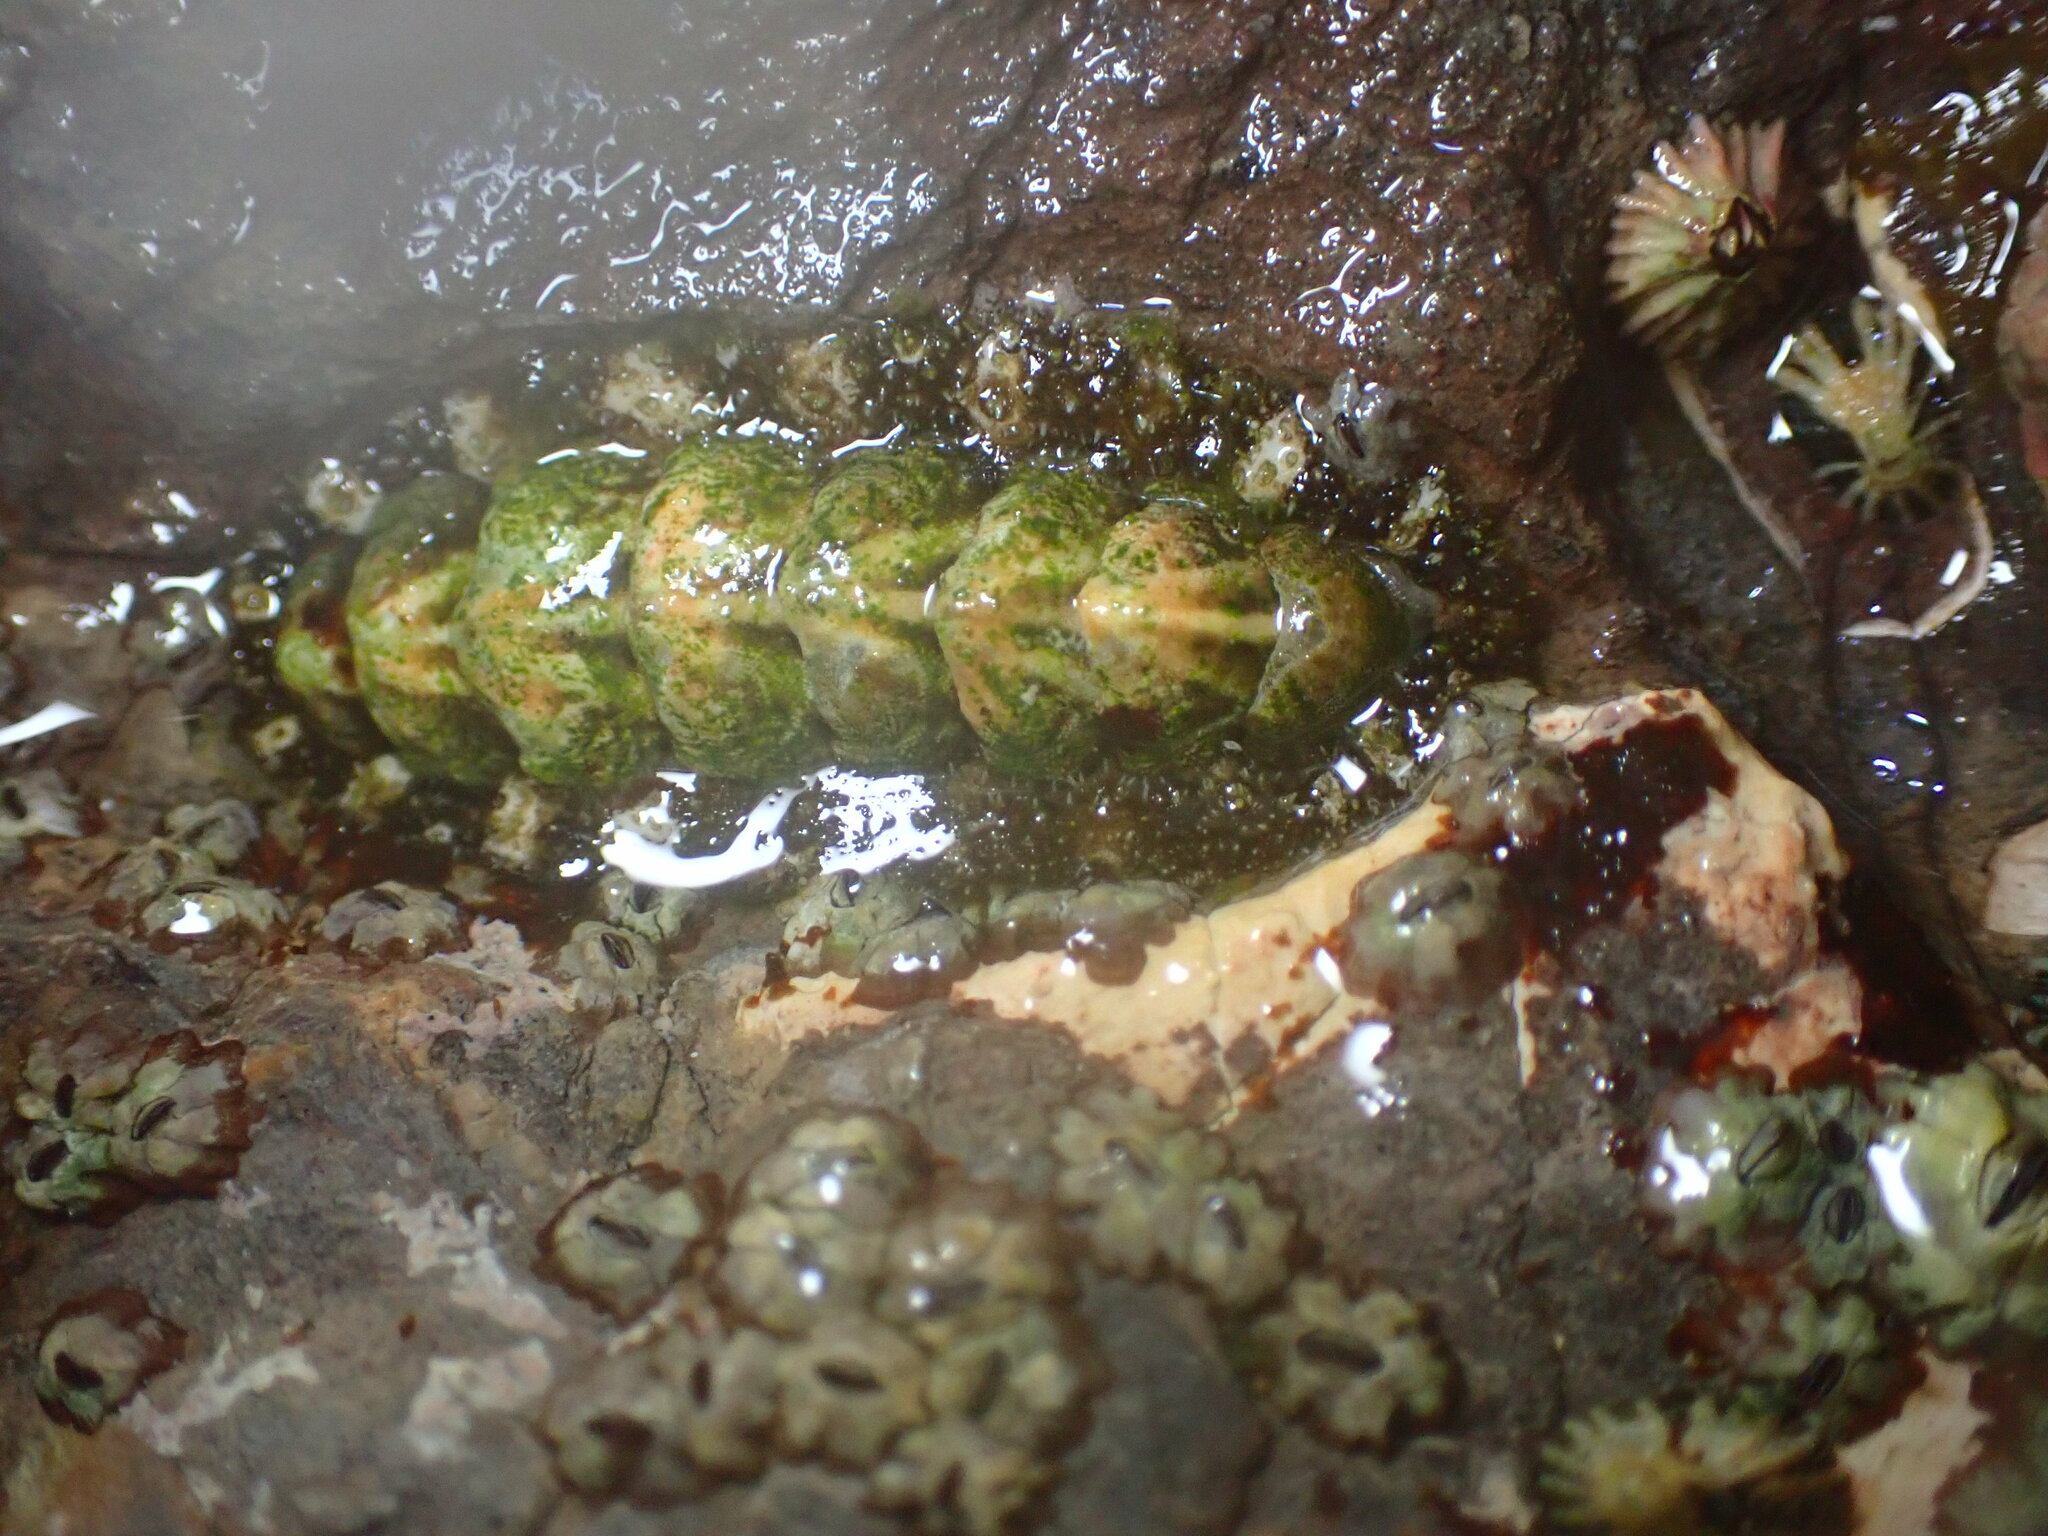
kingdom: Animalia
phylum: Mollusca
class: Polyplacophora
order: Chitonida
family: Tonicellidae
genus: Nuttallina
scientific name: Nuttallina californica
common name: California nuttall chiton
